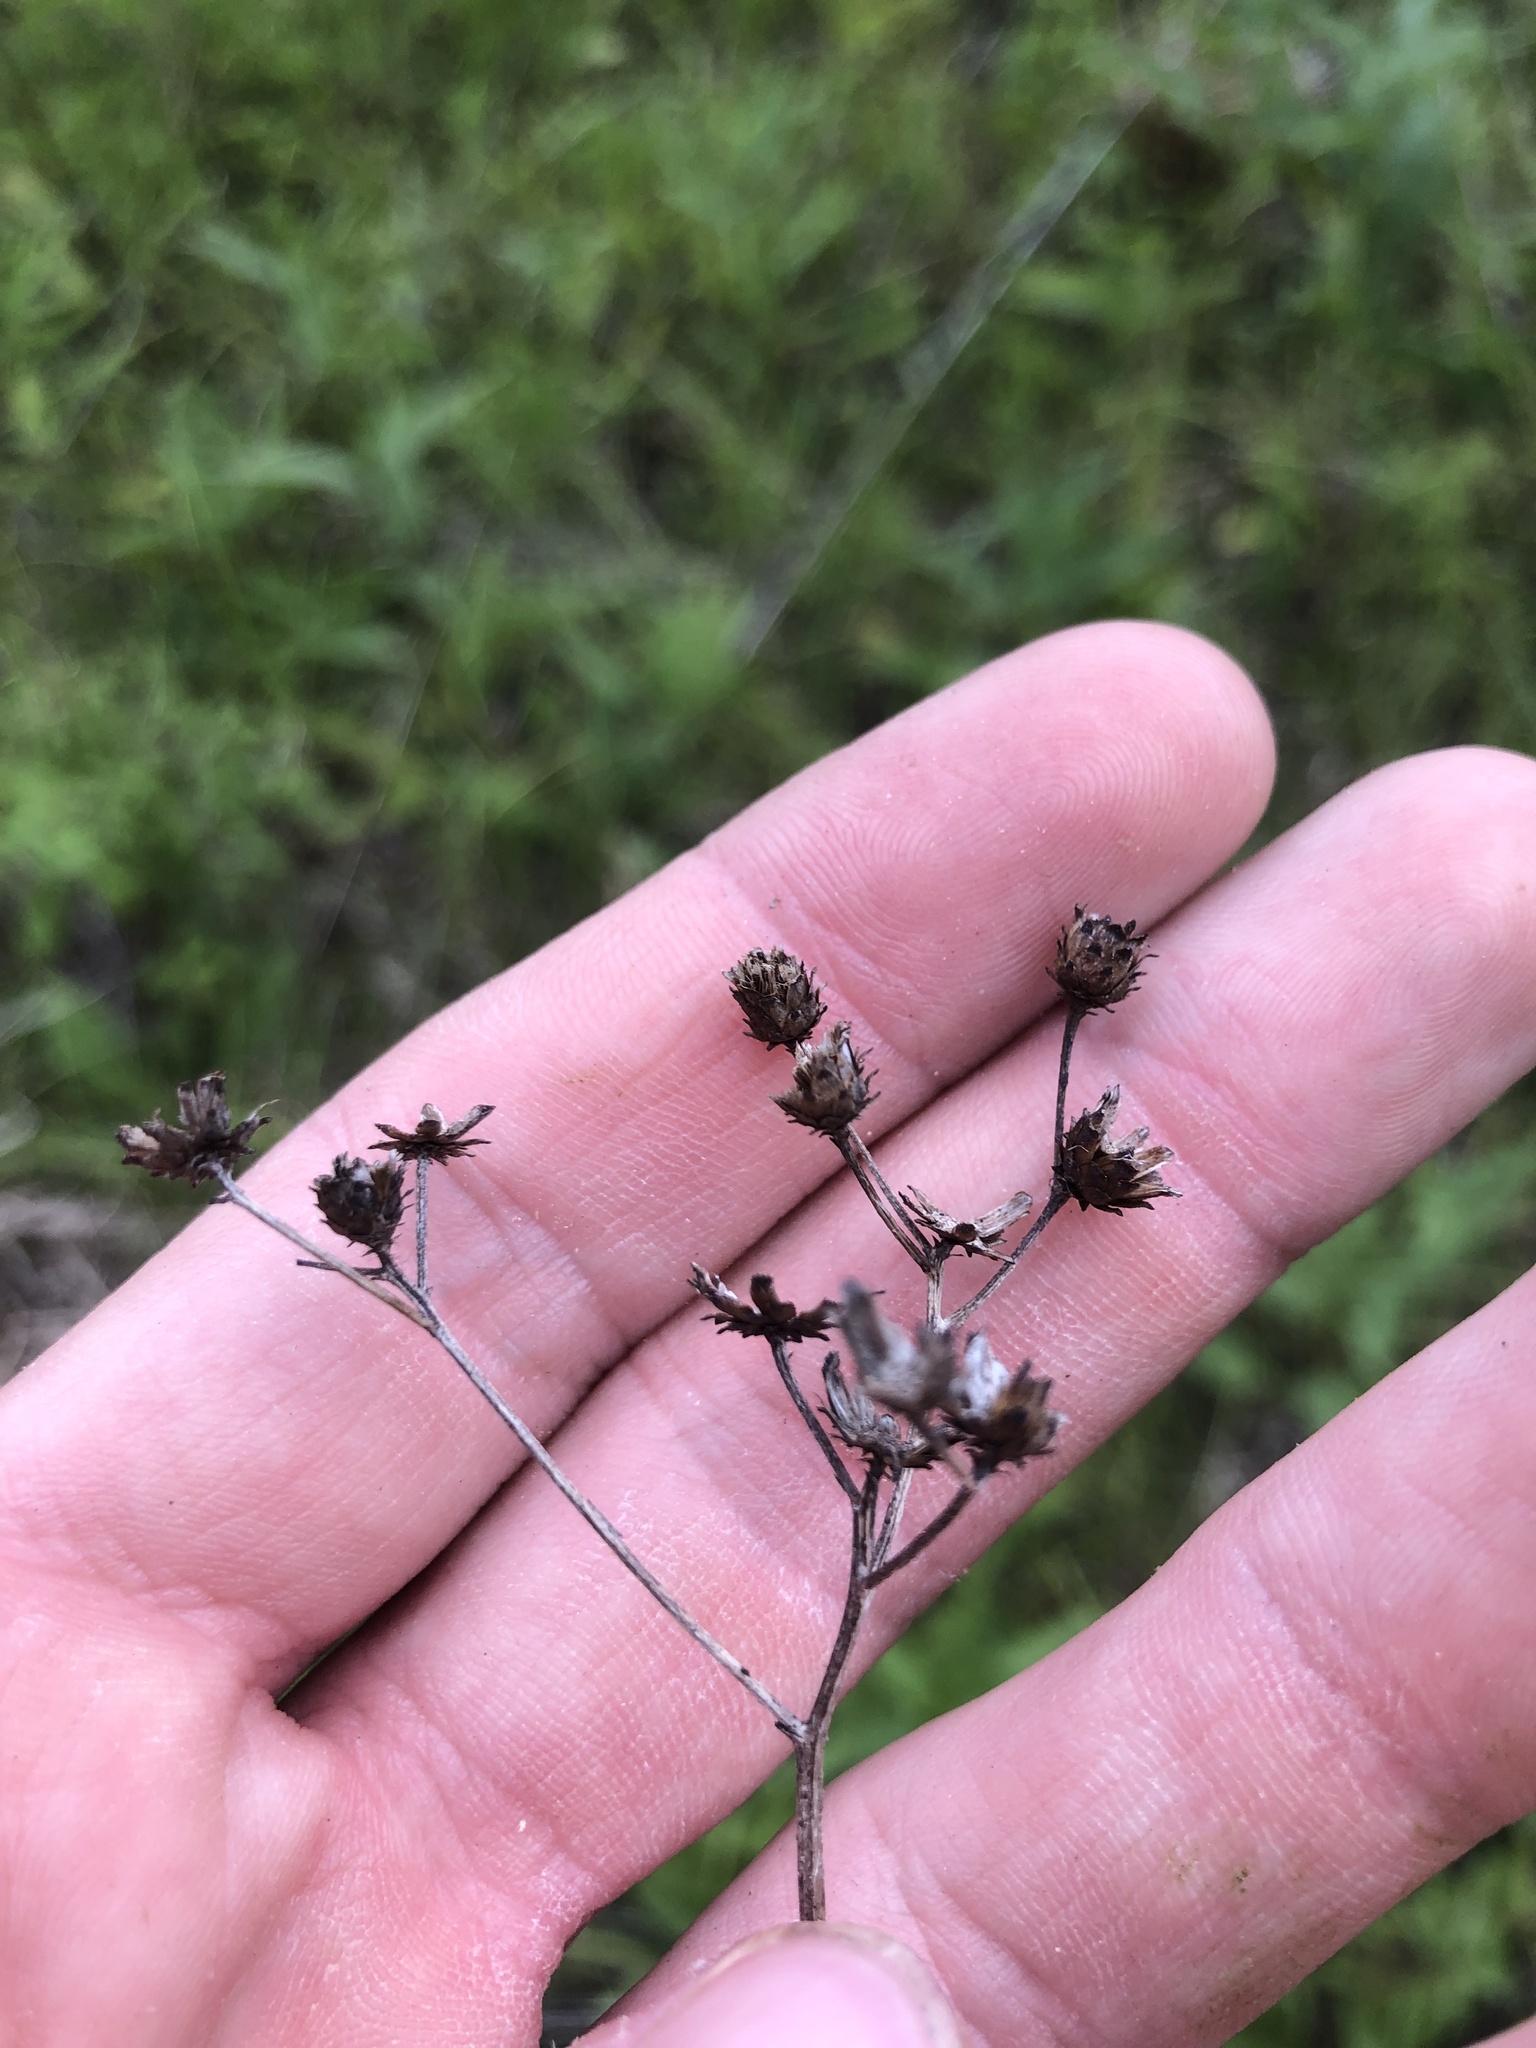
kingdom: Plantae
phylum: Tracheophyta
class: Magnoliopsida
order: Asterales
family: Asteraceae
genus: Vernonia
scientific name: Vernonia gigantea
